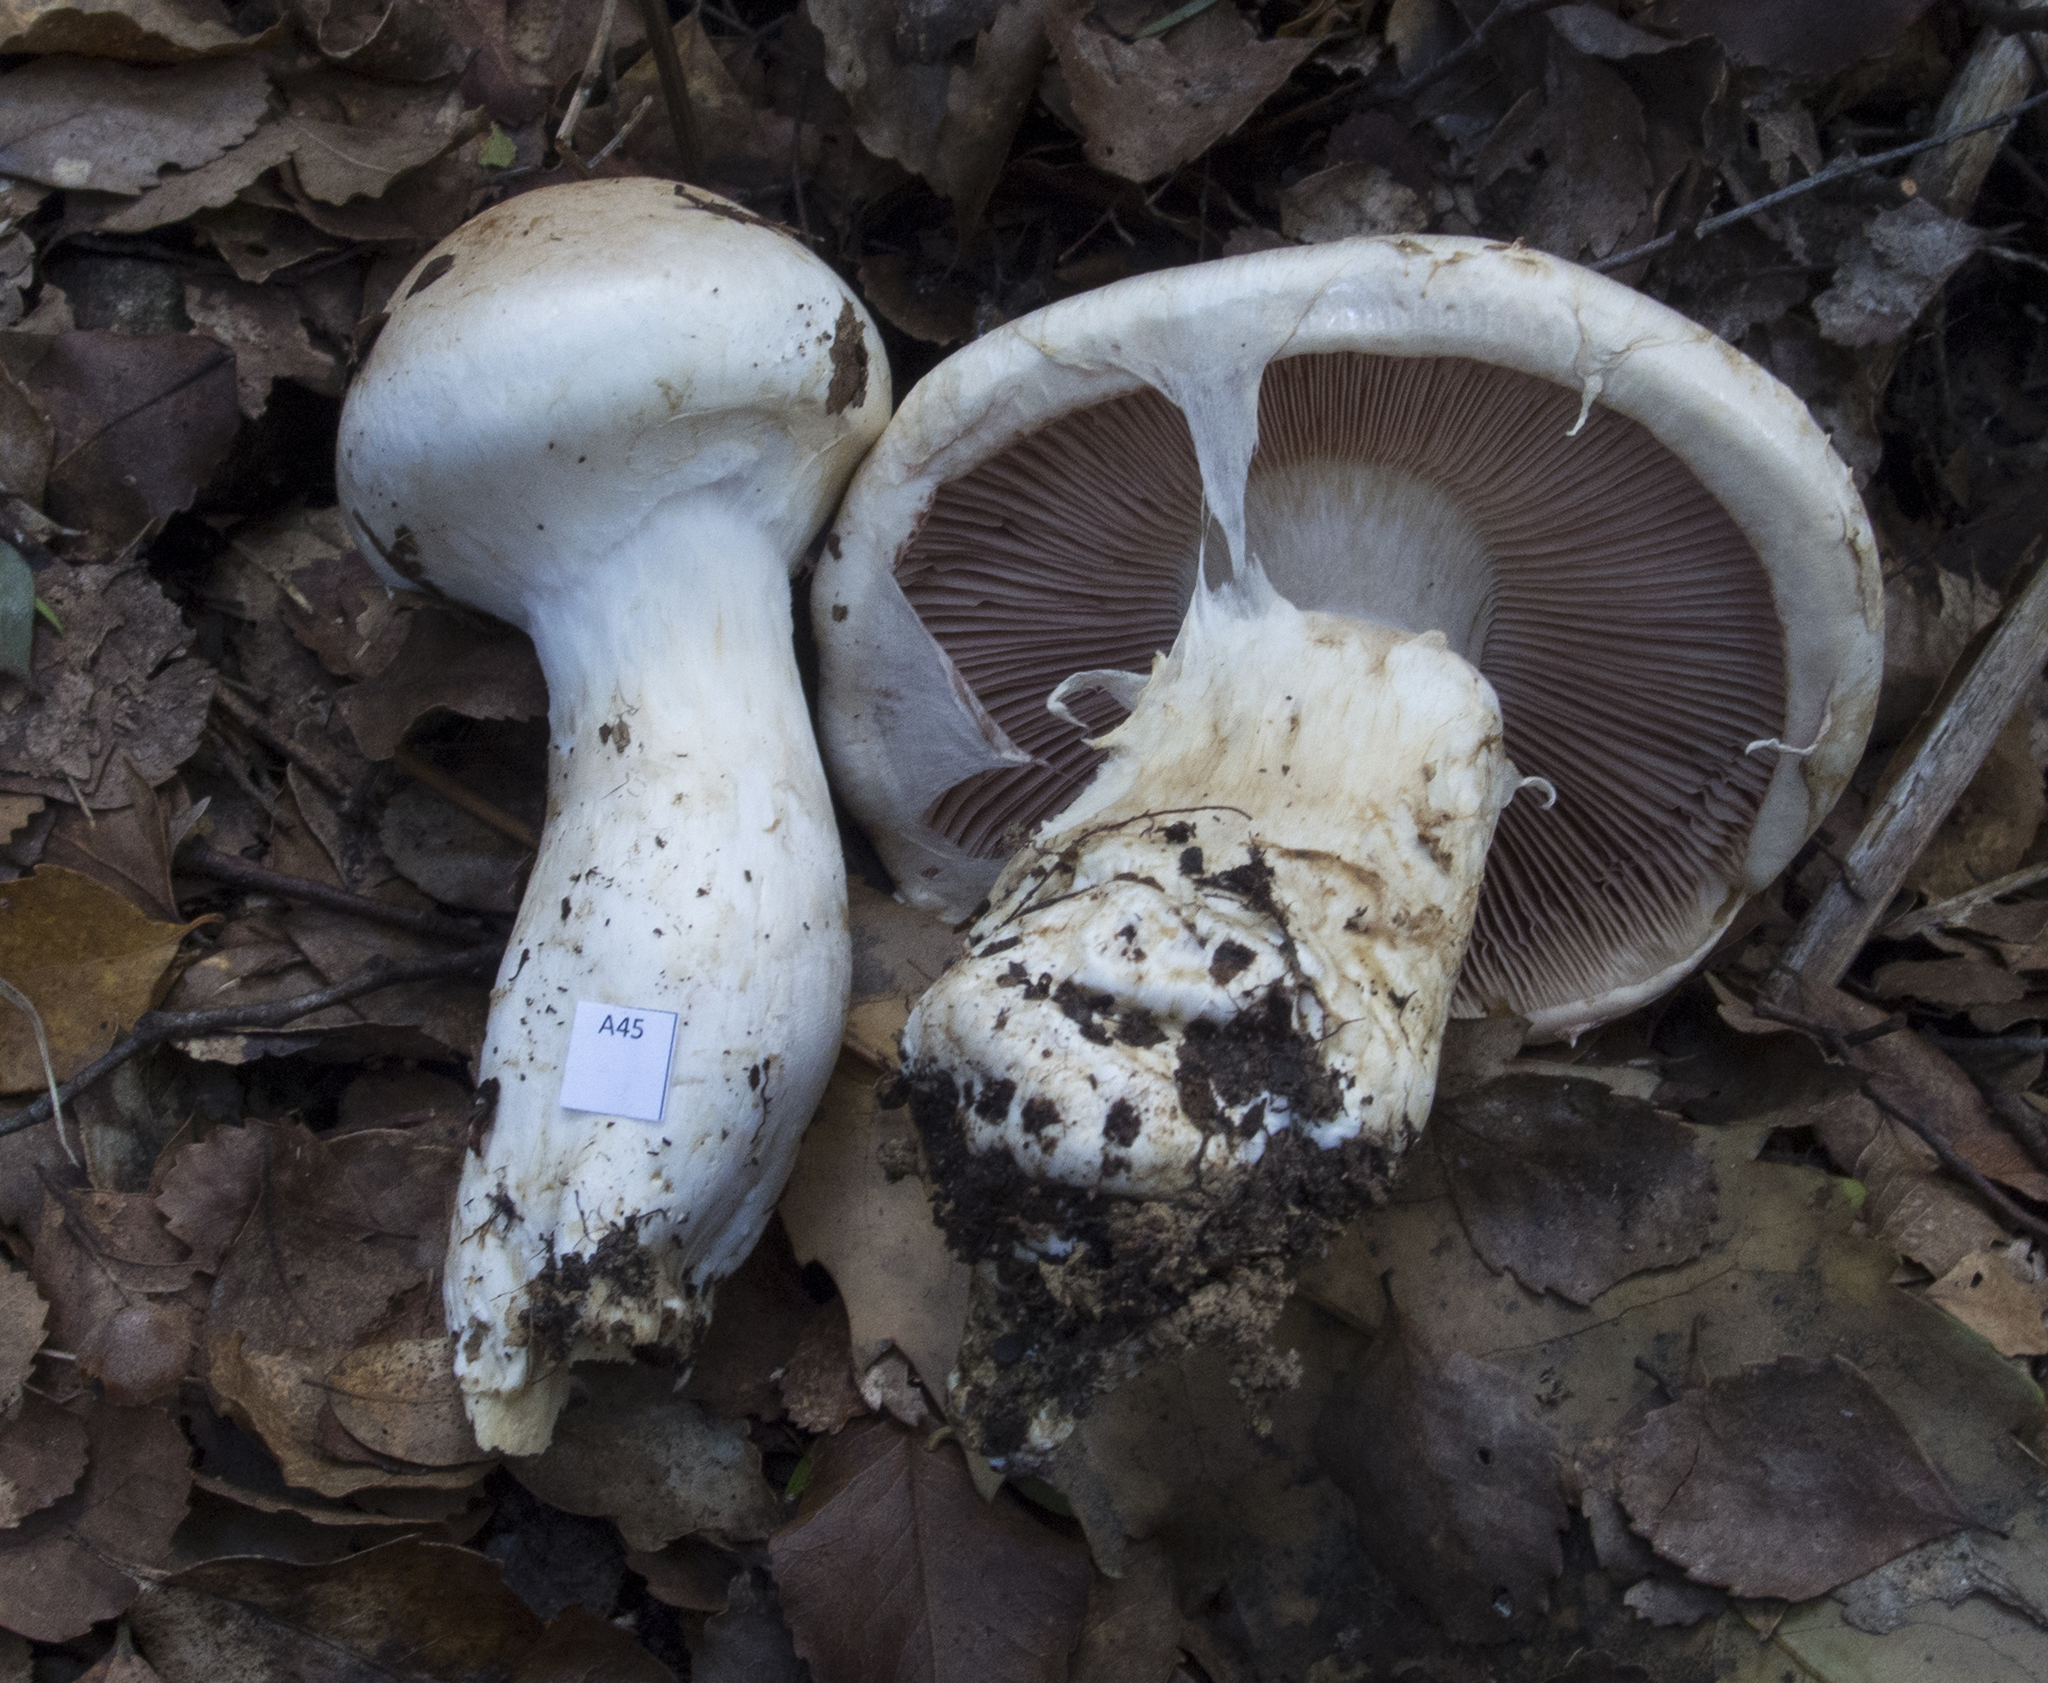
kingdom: Fungi
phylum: Basidiomycota
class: Agaricomycetes
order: Agaricales
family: Hymenogastraceae
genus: Hebeloma
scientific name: Hebeloma victoriense
